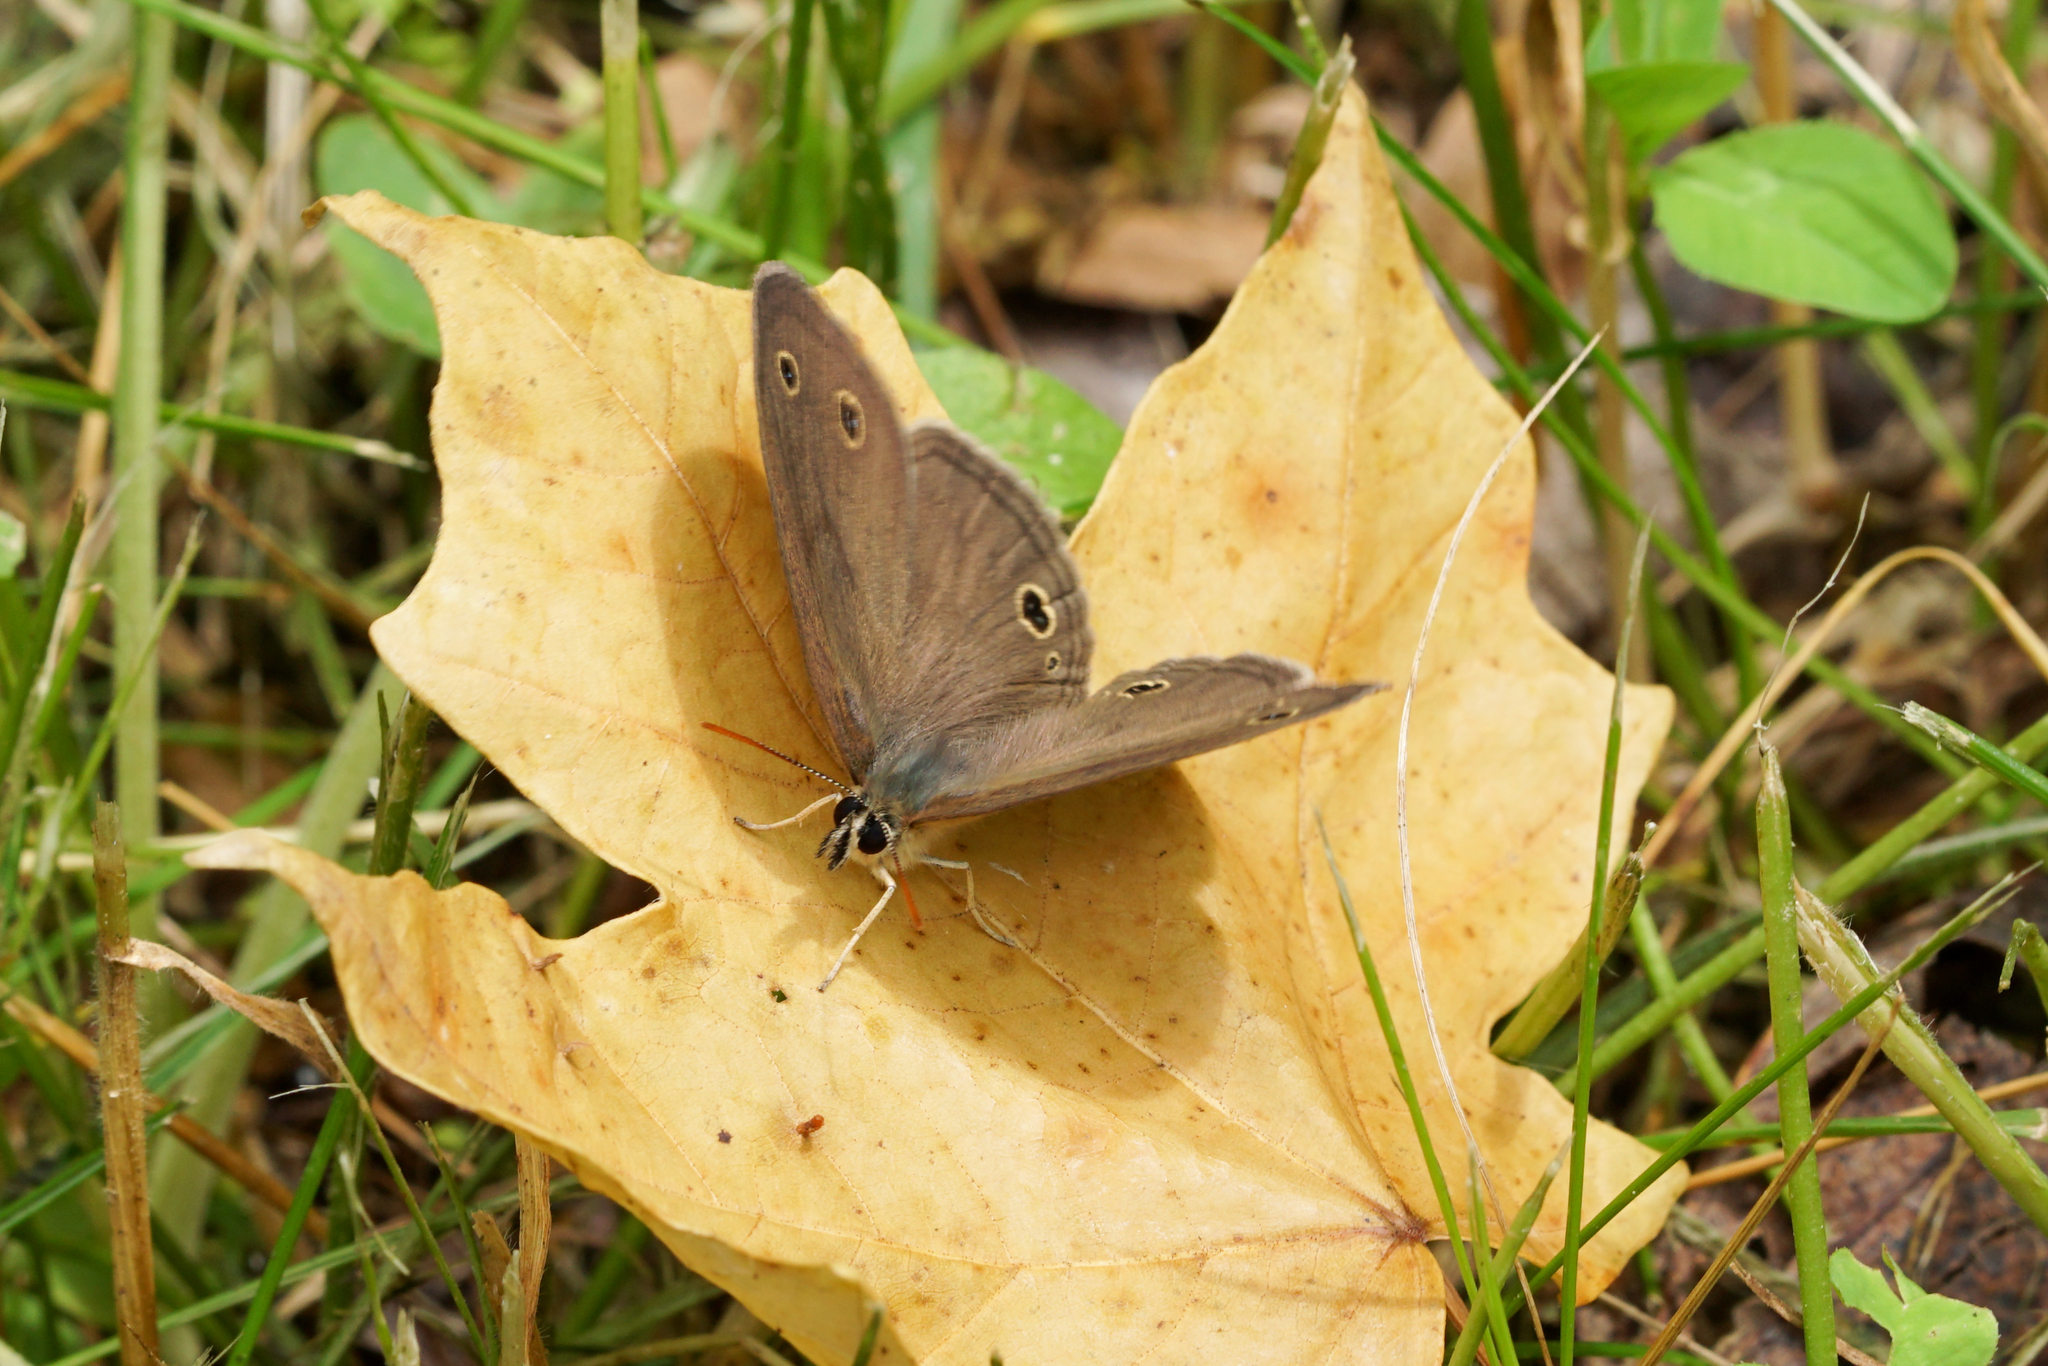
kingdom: Animalia
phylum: Arthropoda
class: Insecta
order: Lepidoptera
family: Nymphalidae
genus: Euptychia
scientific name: Euptychia cymela
